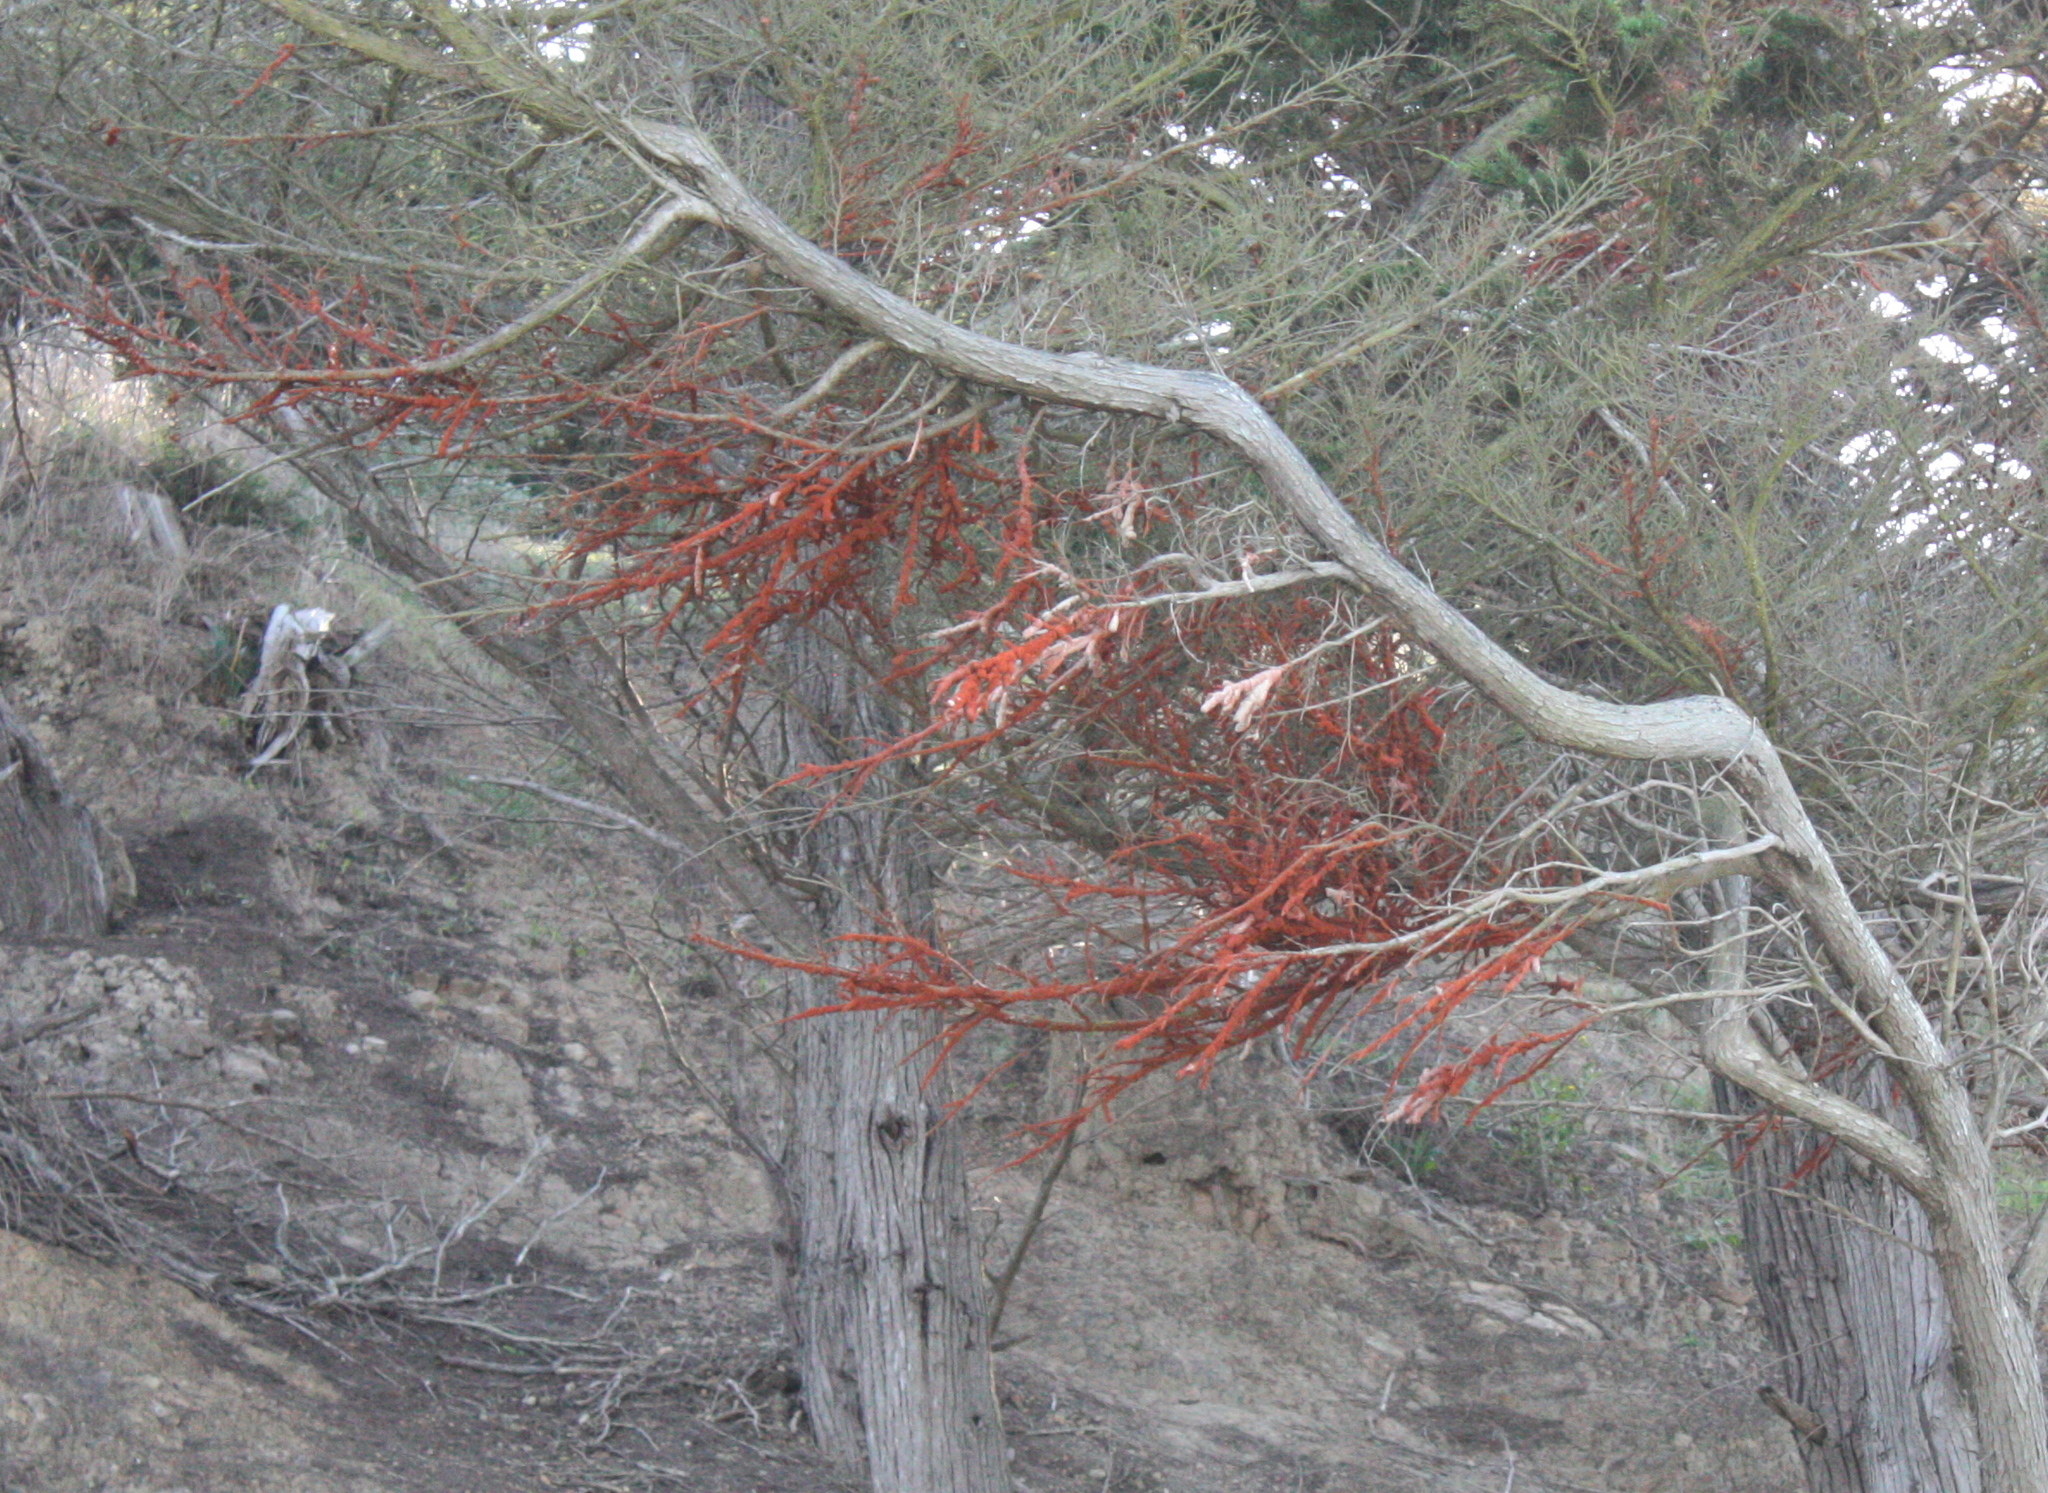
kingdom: Plantae
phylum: Chlorophyta
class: Ulvophyceae
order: Trentepohliales
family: Trentepohliaceae
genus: Trentepohlia
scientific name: Trentepohlia aurea
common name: Orange rock hair
